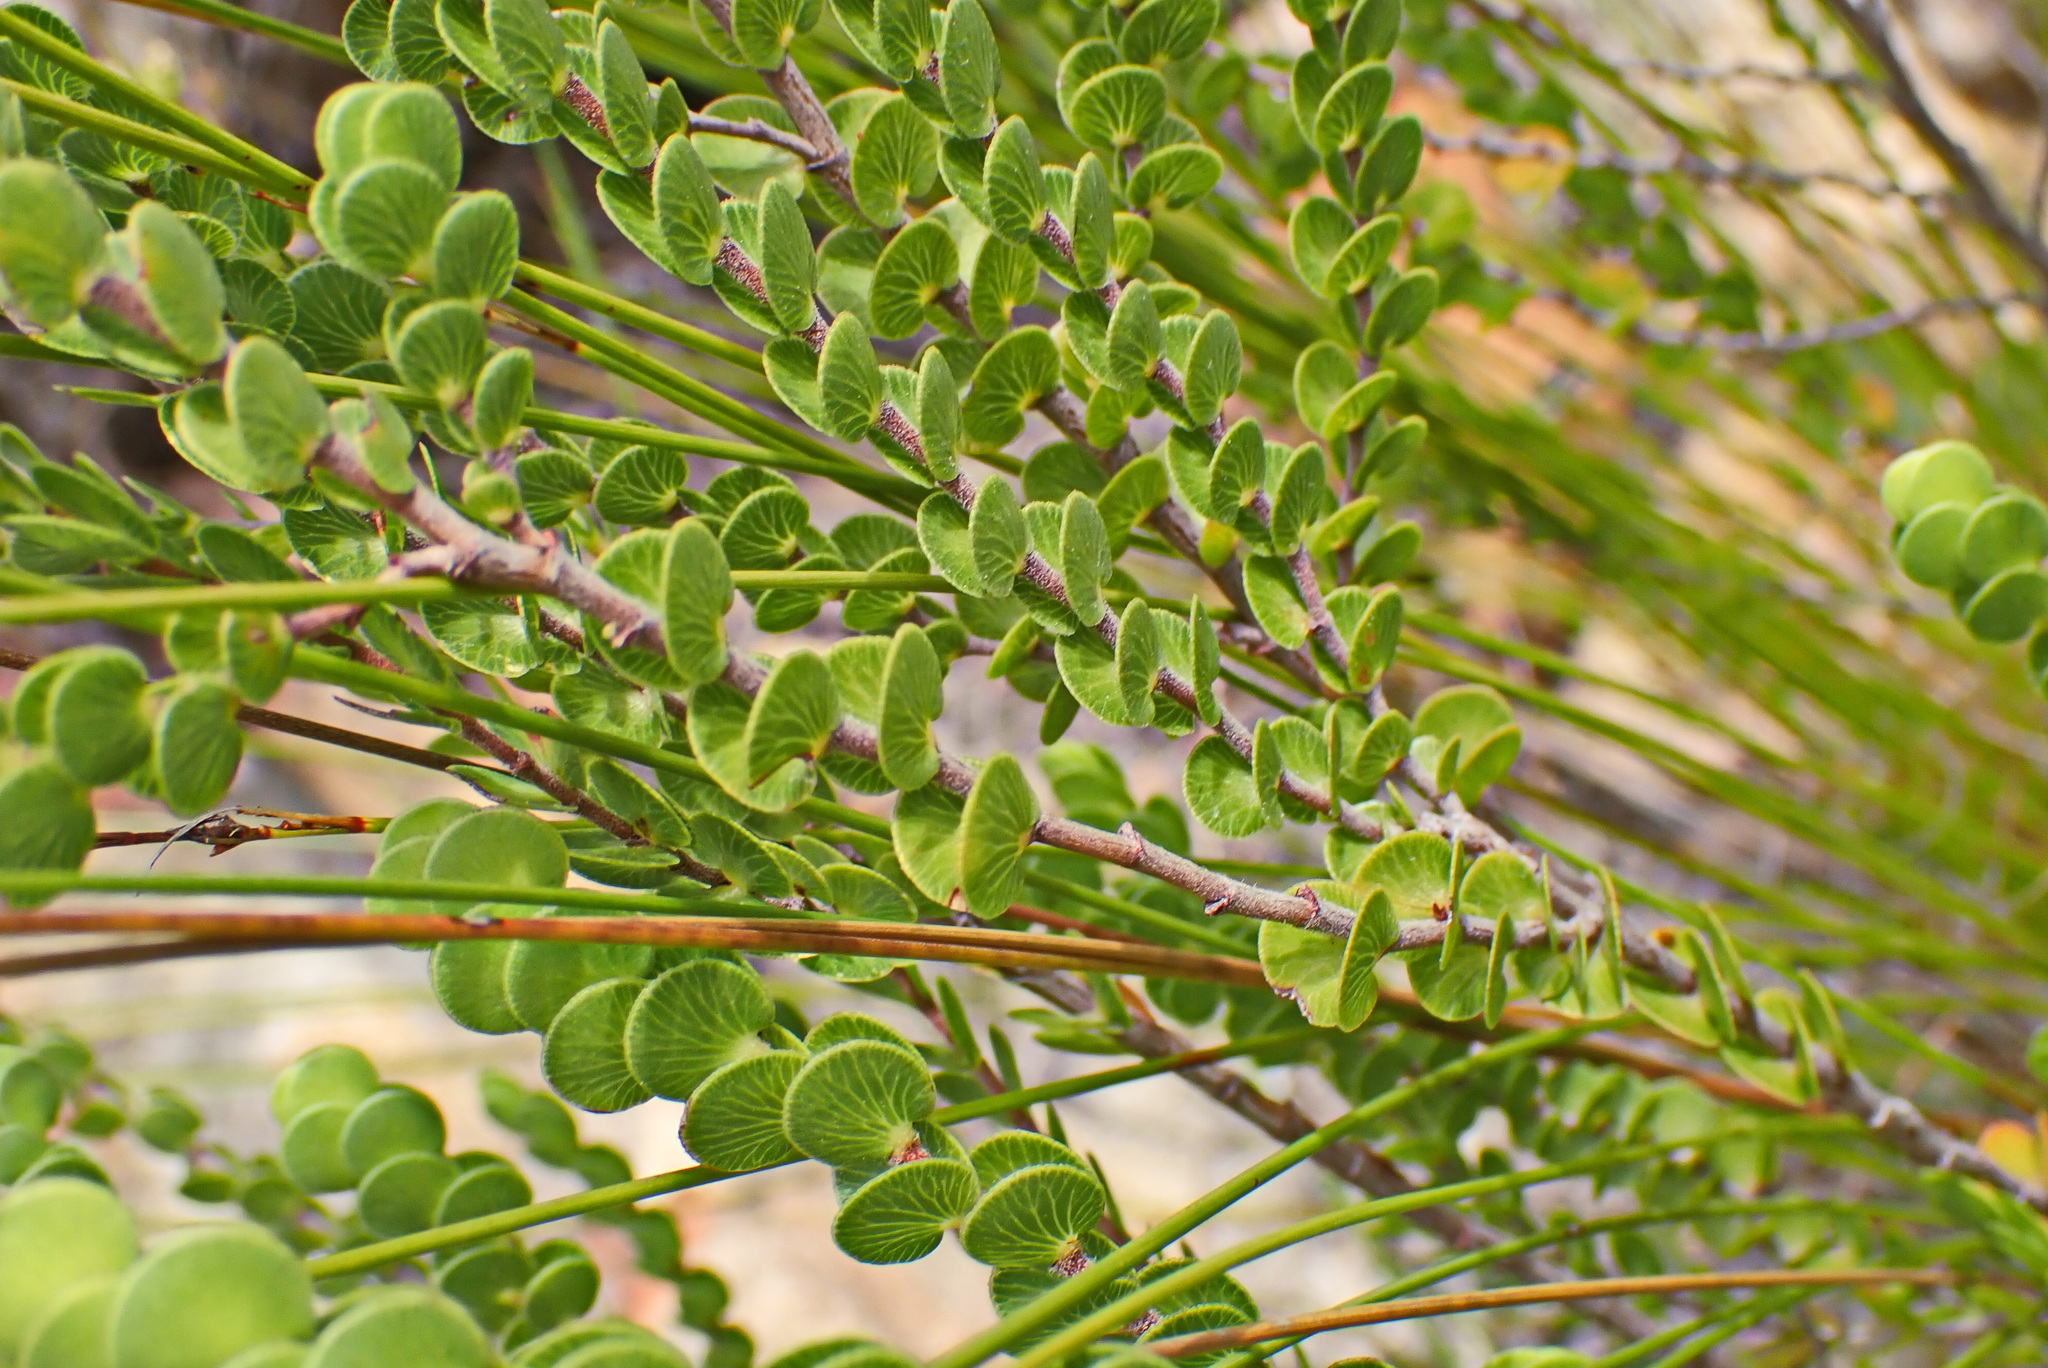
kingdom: Plantae
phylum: Tracheophyta
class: Magnoliopsida
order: Rosales
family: Rosaceae
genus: Cliffortia
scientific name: Cliffortia pulchella
